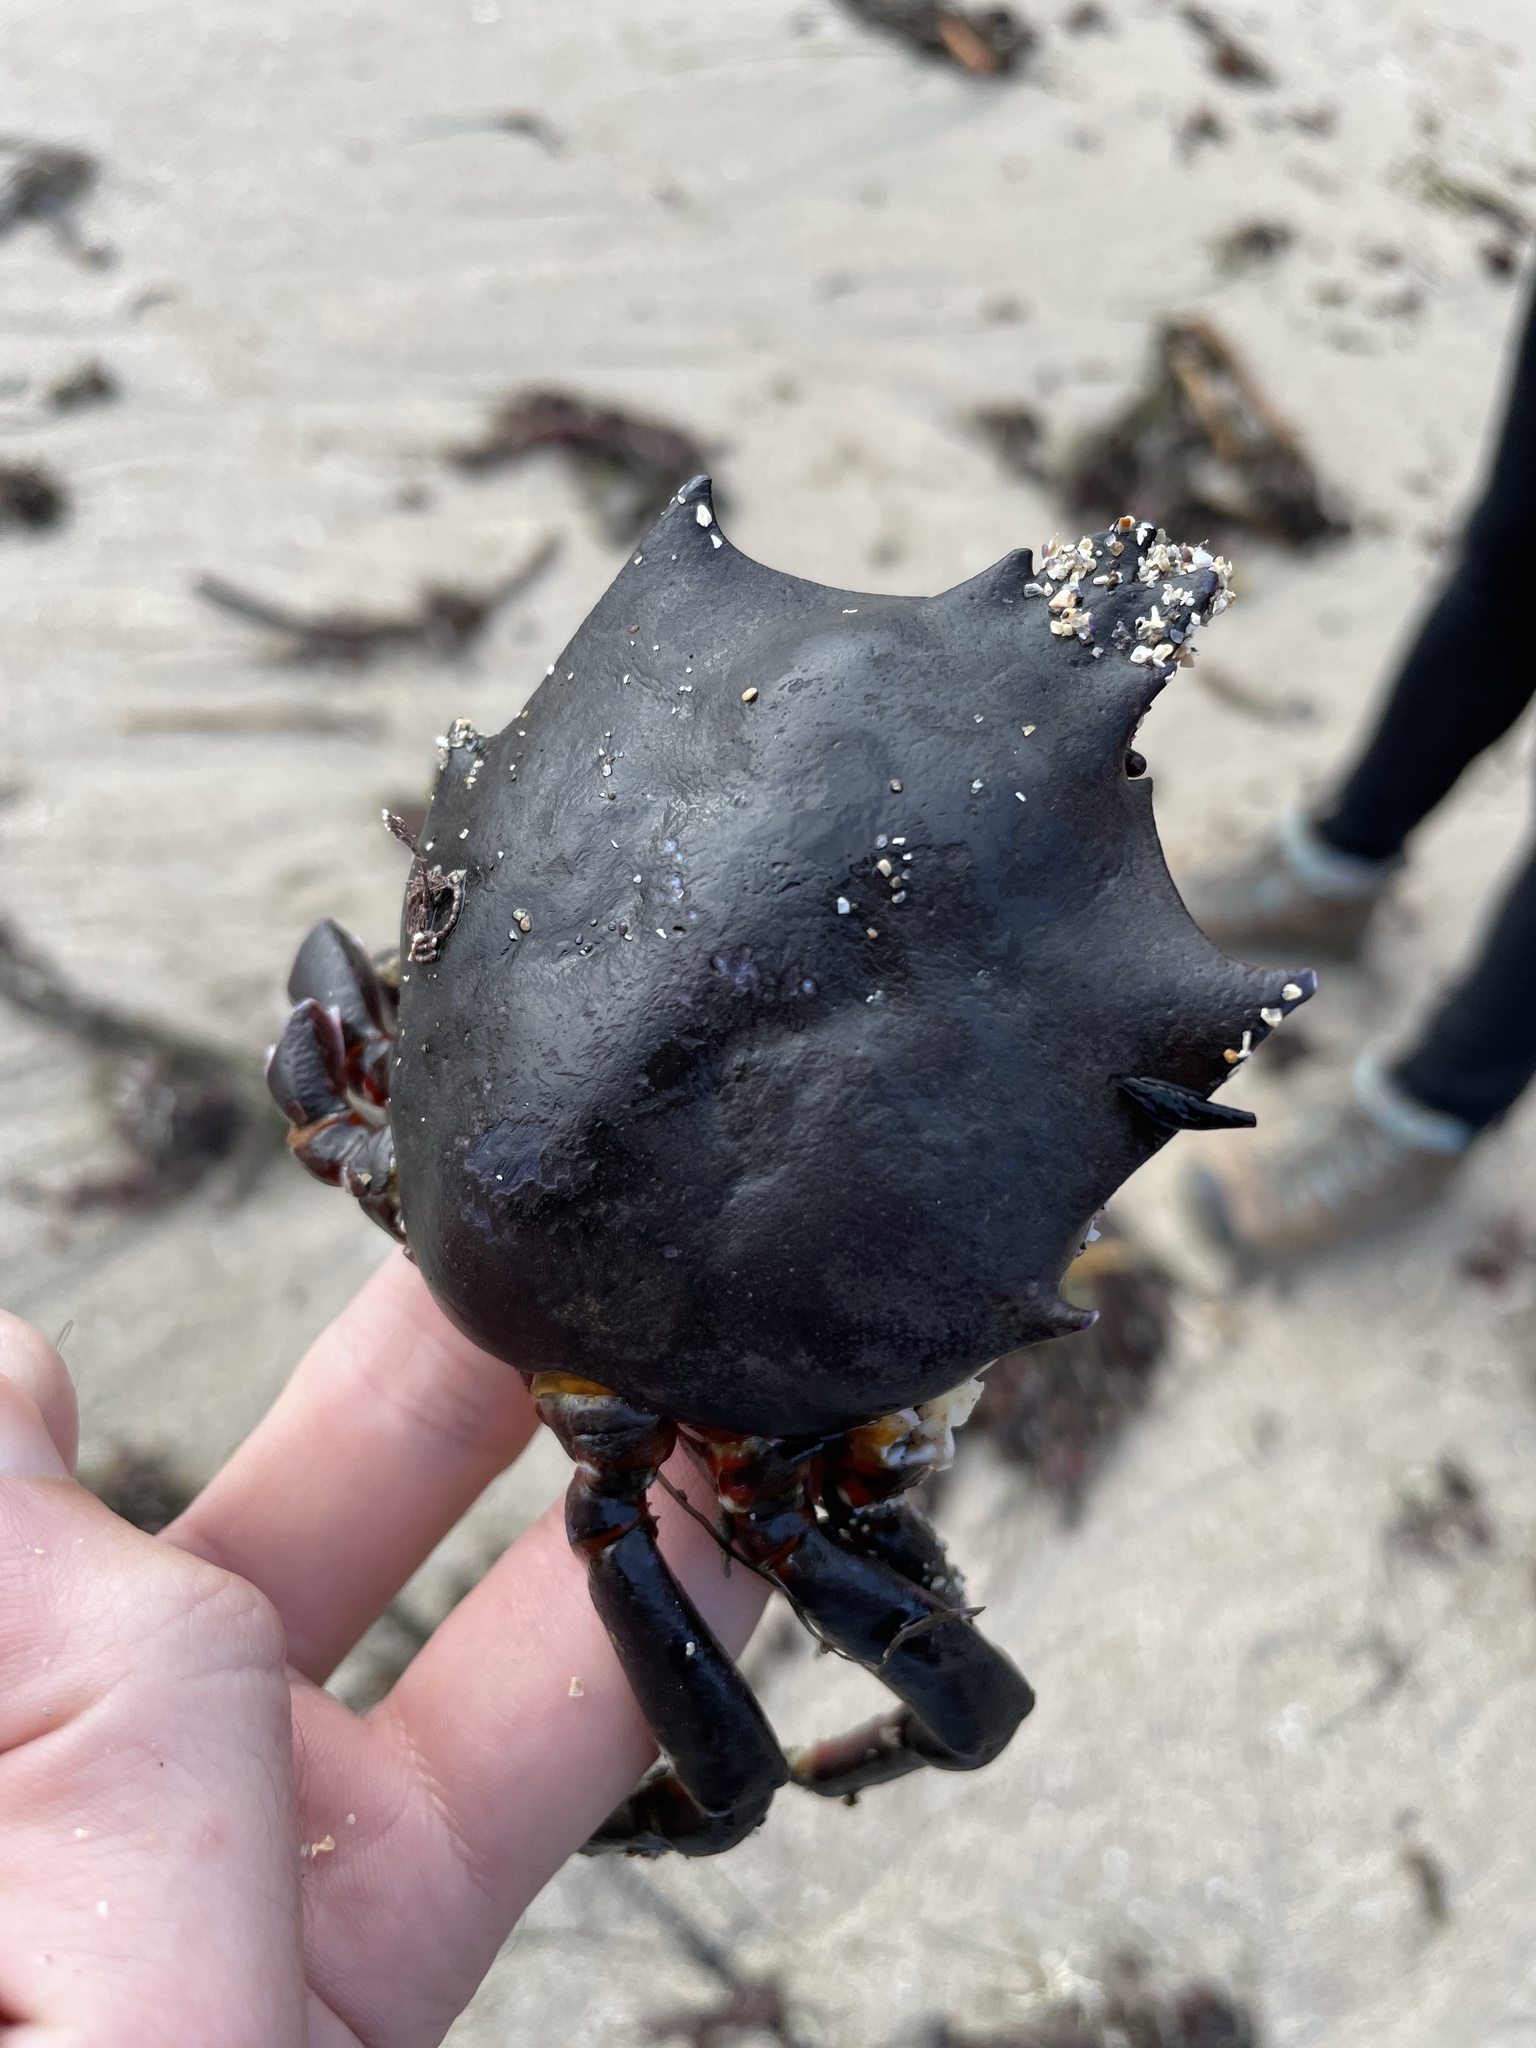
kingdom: Animalia
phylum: Arthropoda
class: Malacostraca
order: Decapoda
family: Epialtidae
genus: Pugettia
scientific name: Pugettia producta
